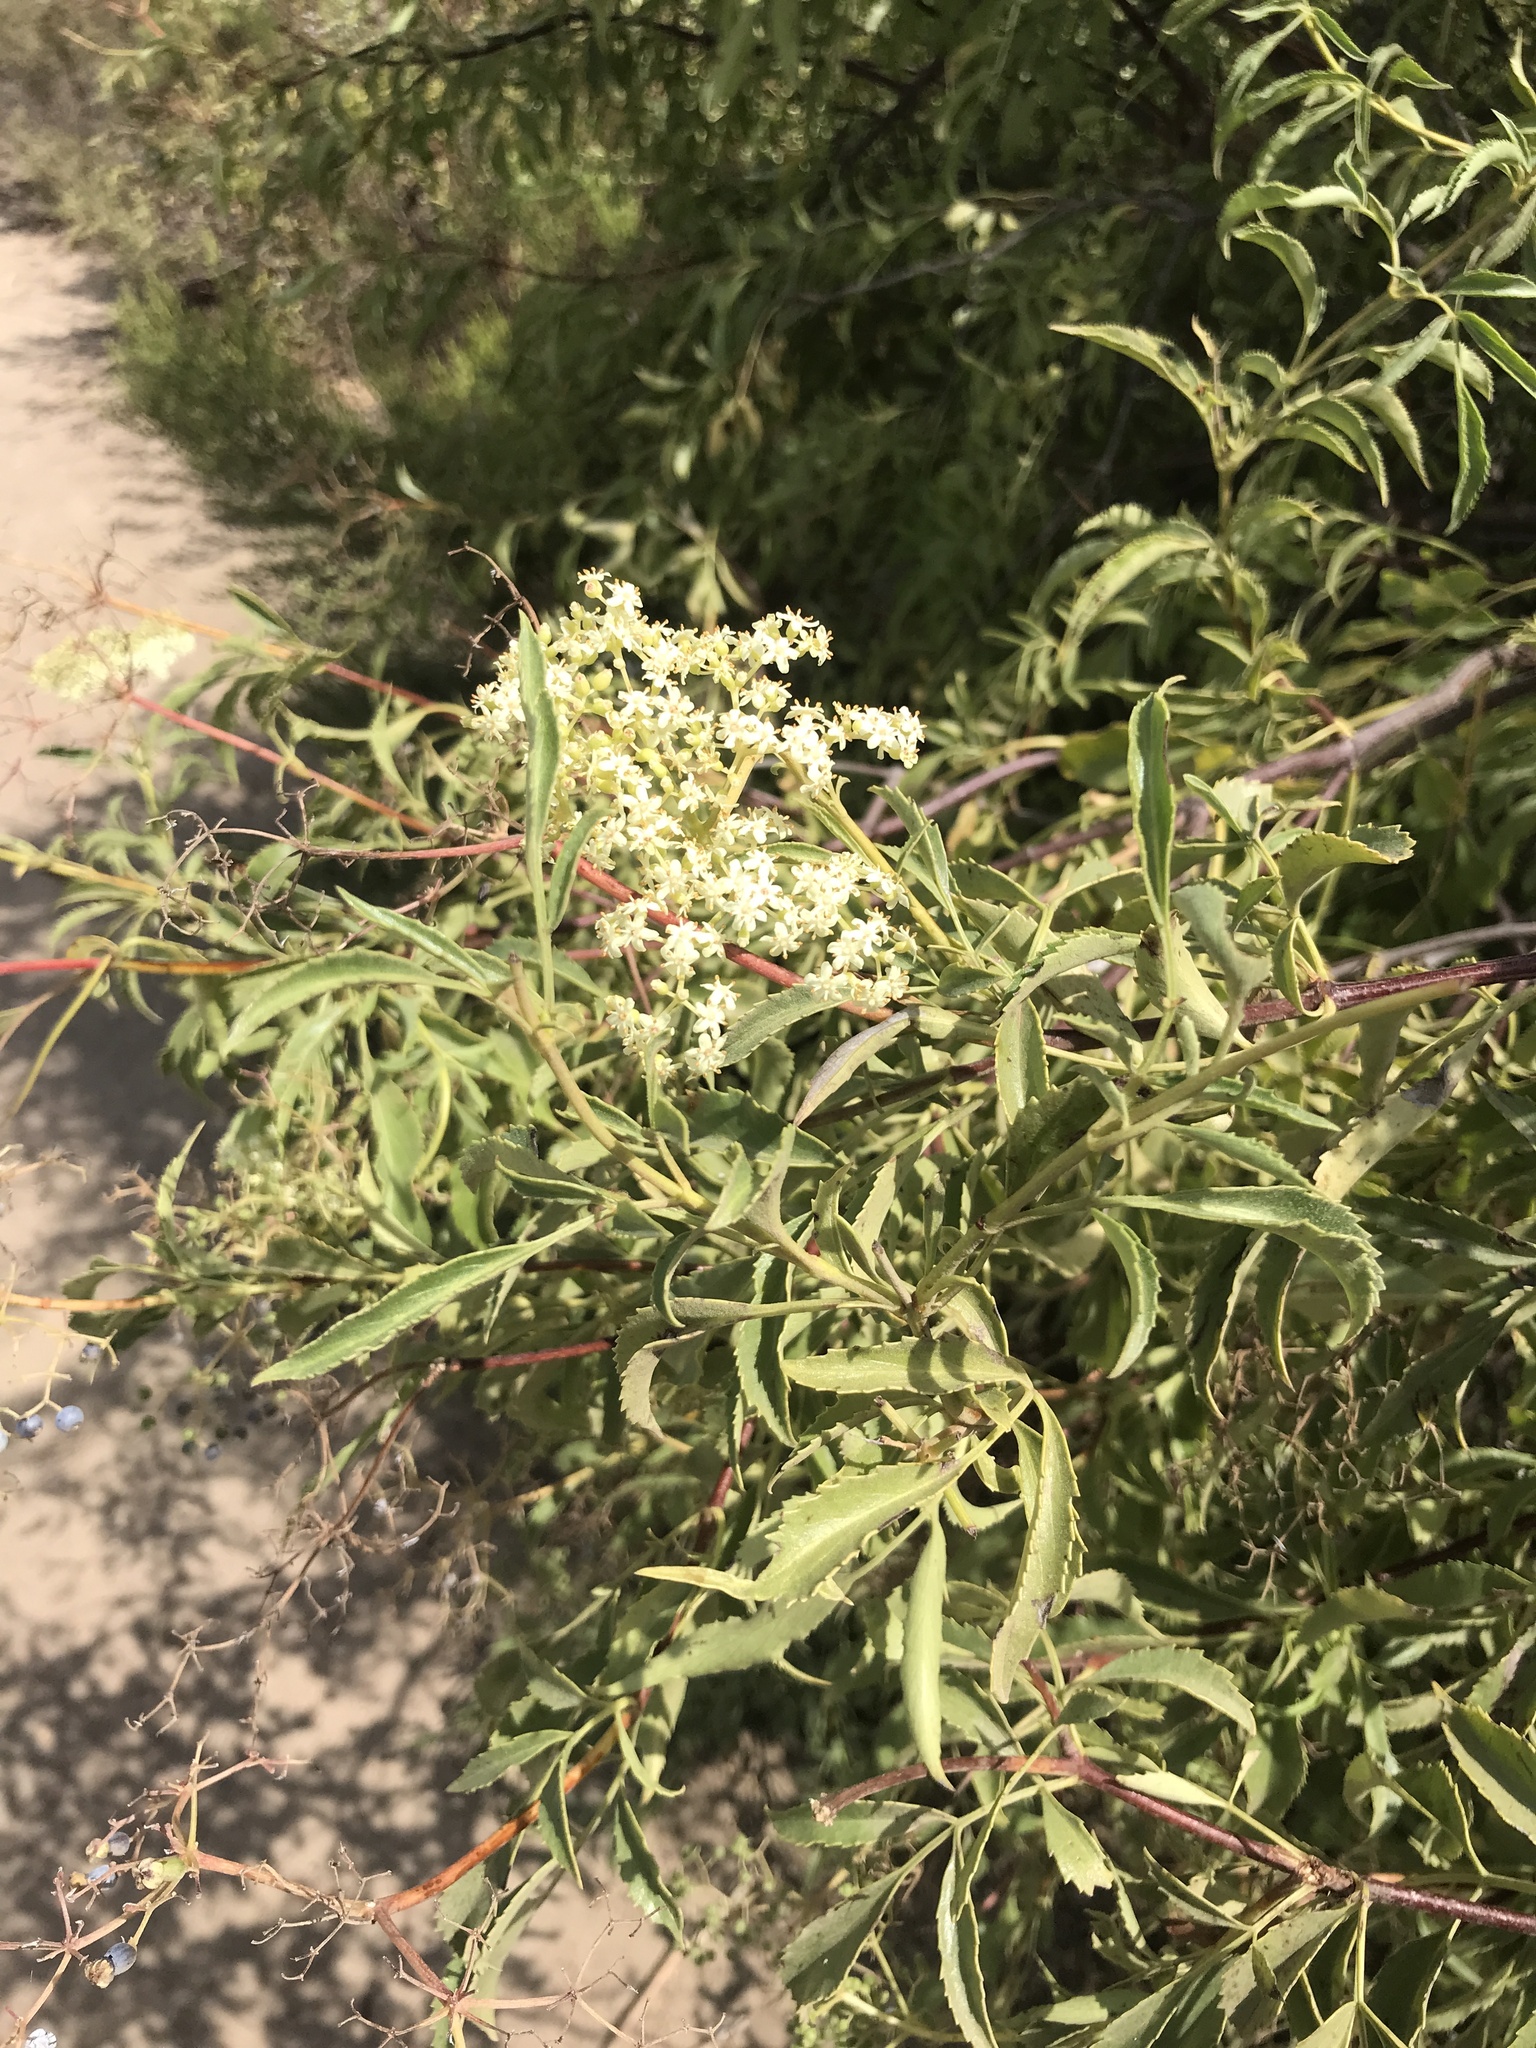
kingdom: Plantae
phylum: Tracheophyta
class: Magnoliopsida
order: Dipsacales
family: Viburnaceae
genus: Sambucus
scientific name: Sambucus cerulea
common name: Blue elder
